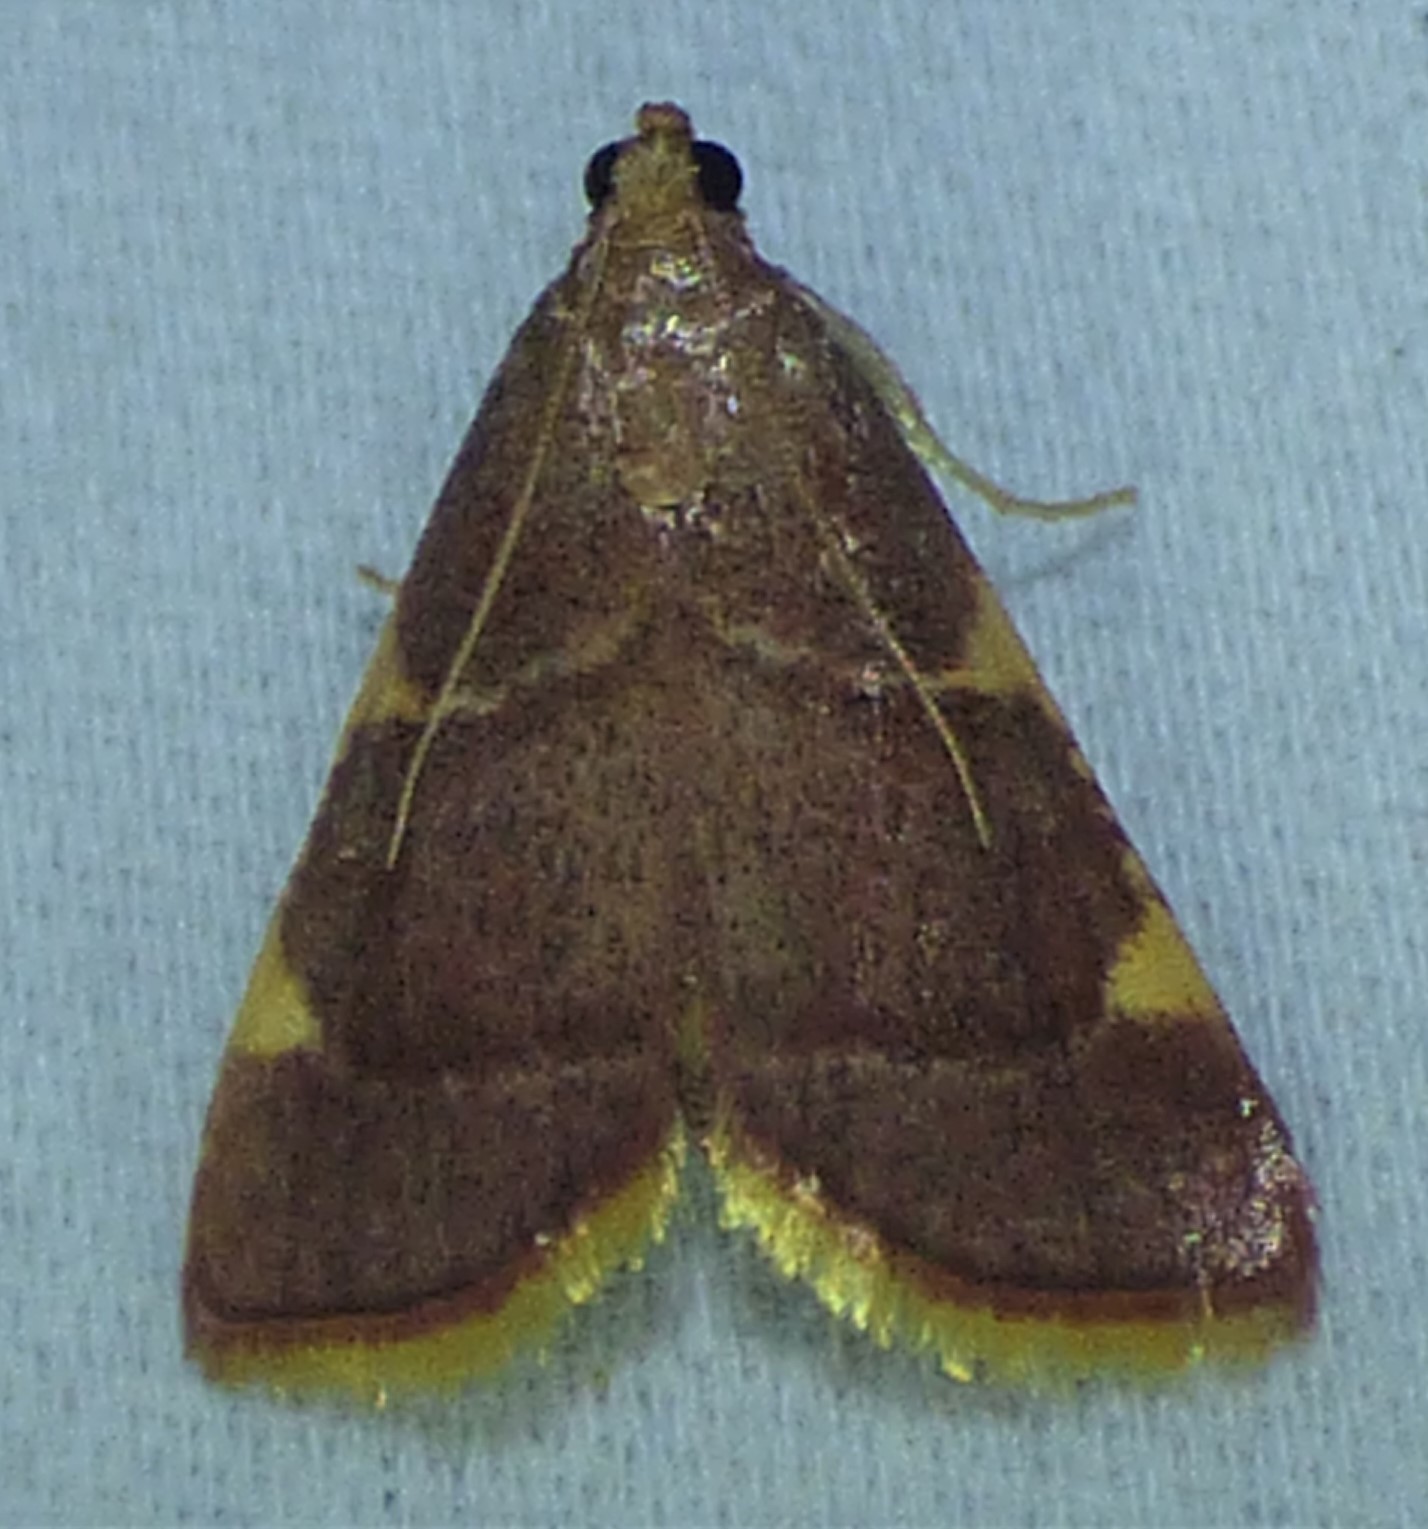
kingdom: Animalia
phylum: Arthropoda
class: Insecta
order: Lepidoptera
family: Pyralidae
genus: Hypsopygia
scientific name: Hypsopygia olinalis
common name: Yellow-fringed dolichomia moth
